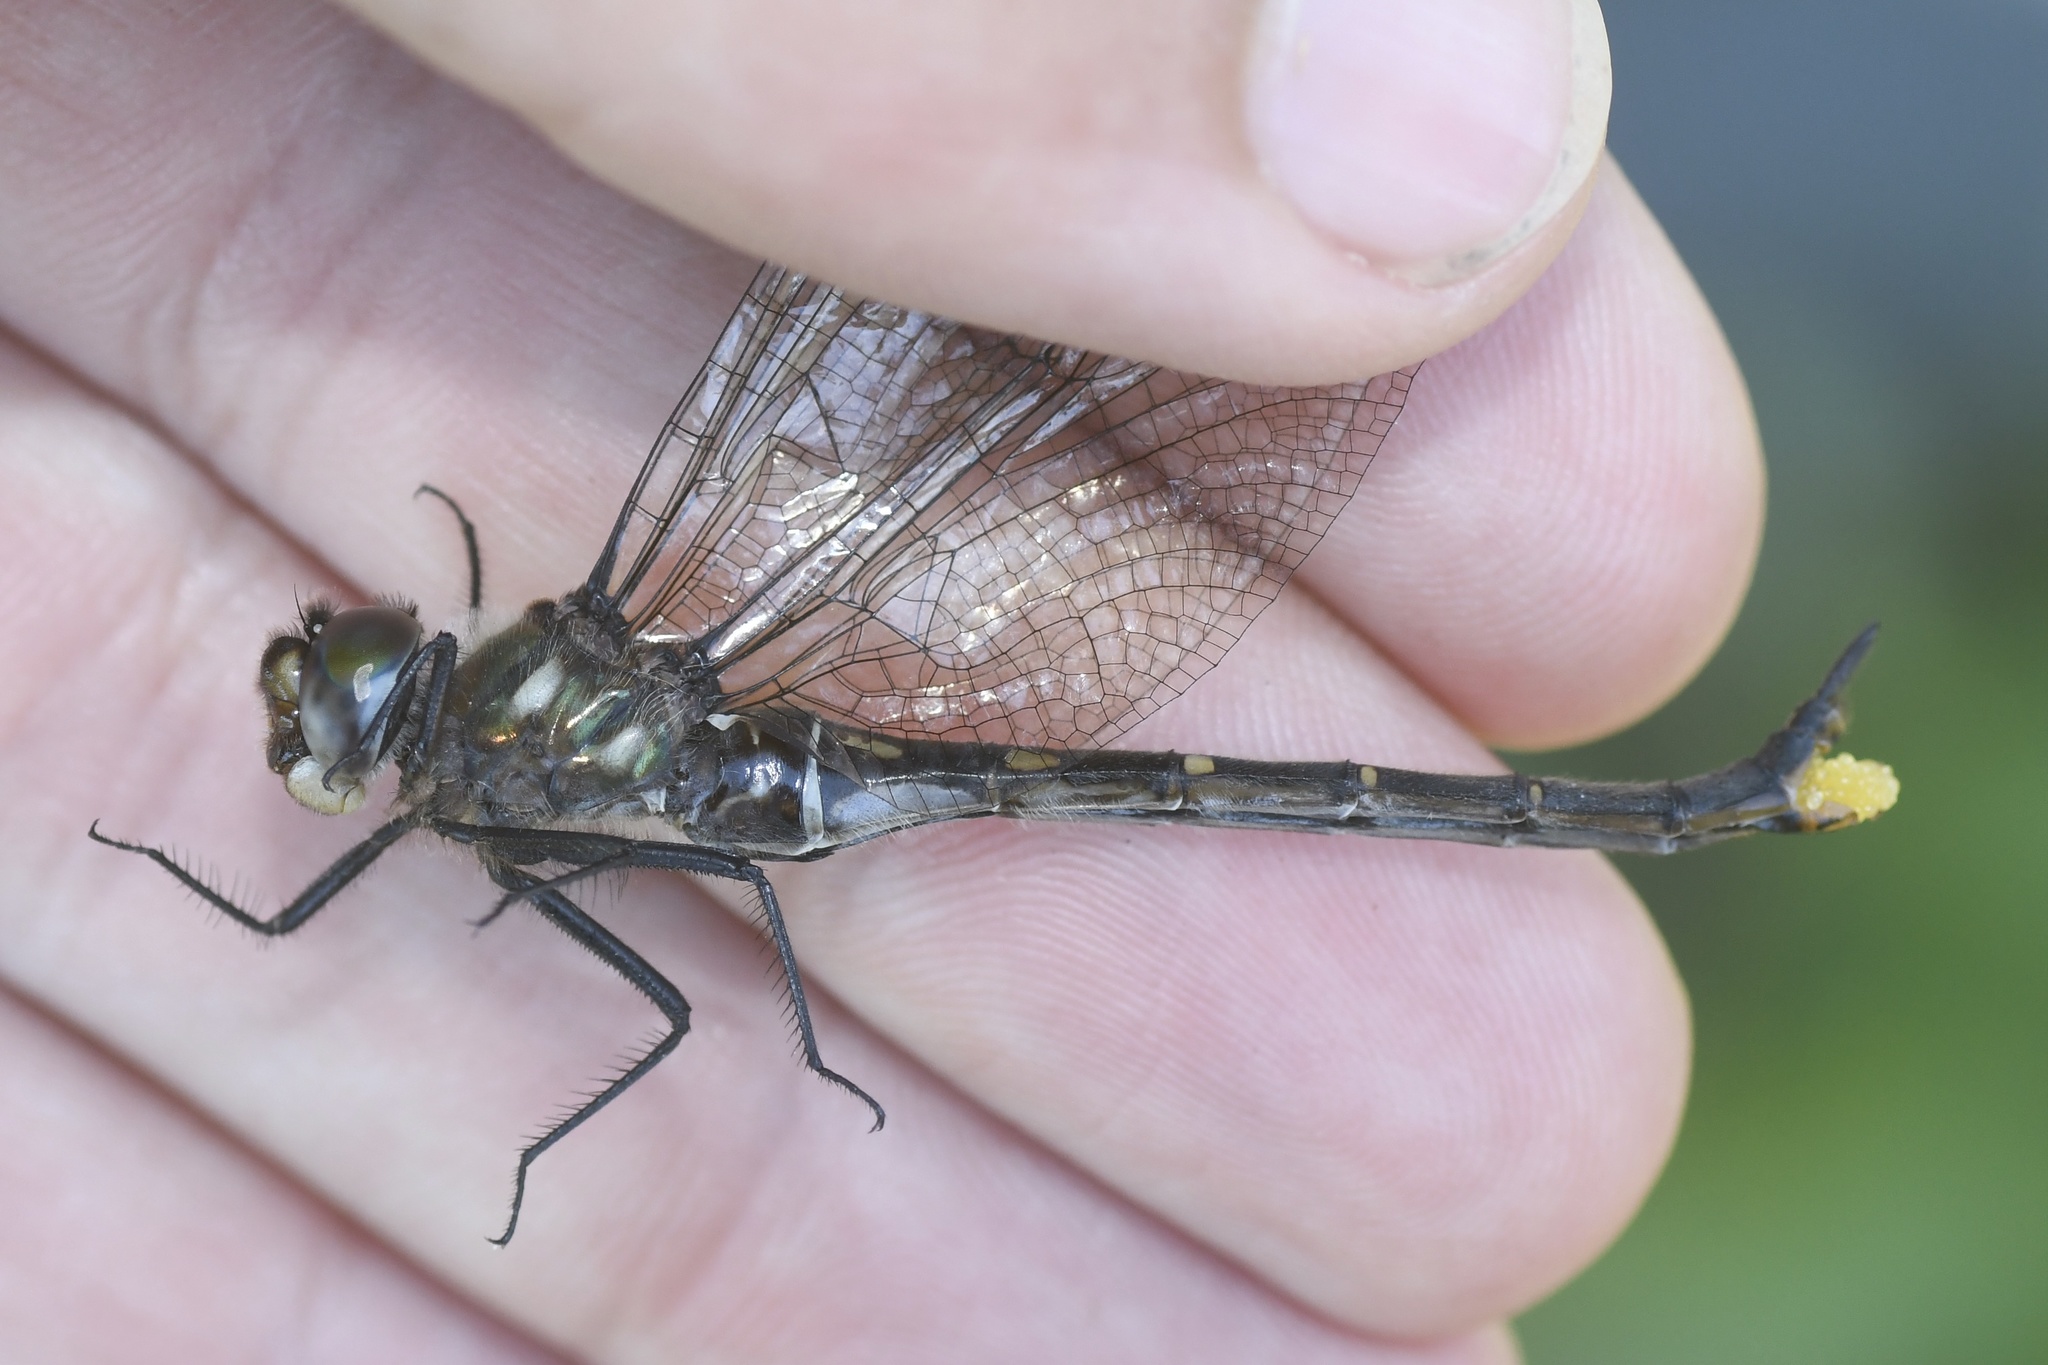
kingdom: Animalia
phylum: Arthropoda
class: Insecta
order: Odonata
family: Corduliidae
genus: Somatochlora
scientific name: Somatochlora forcipata
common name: Forcipate emerald
